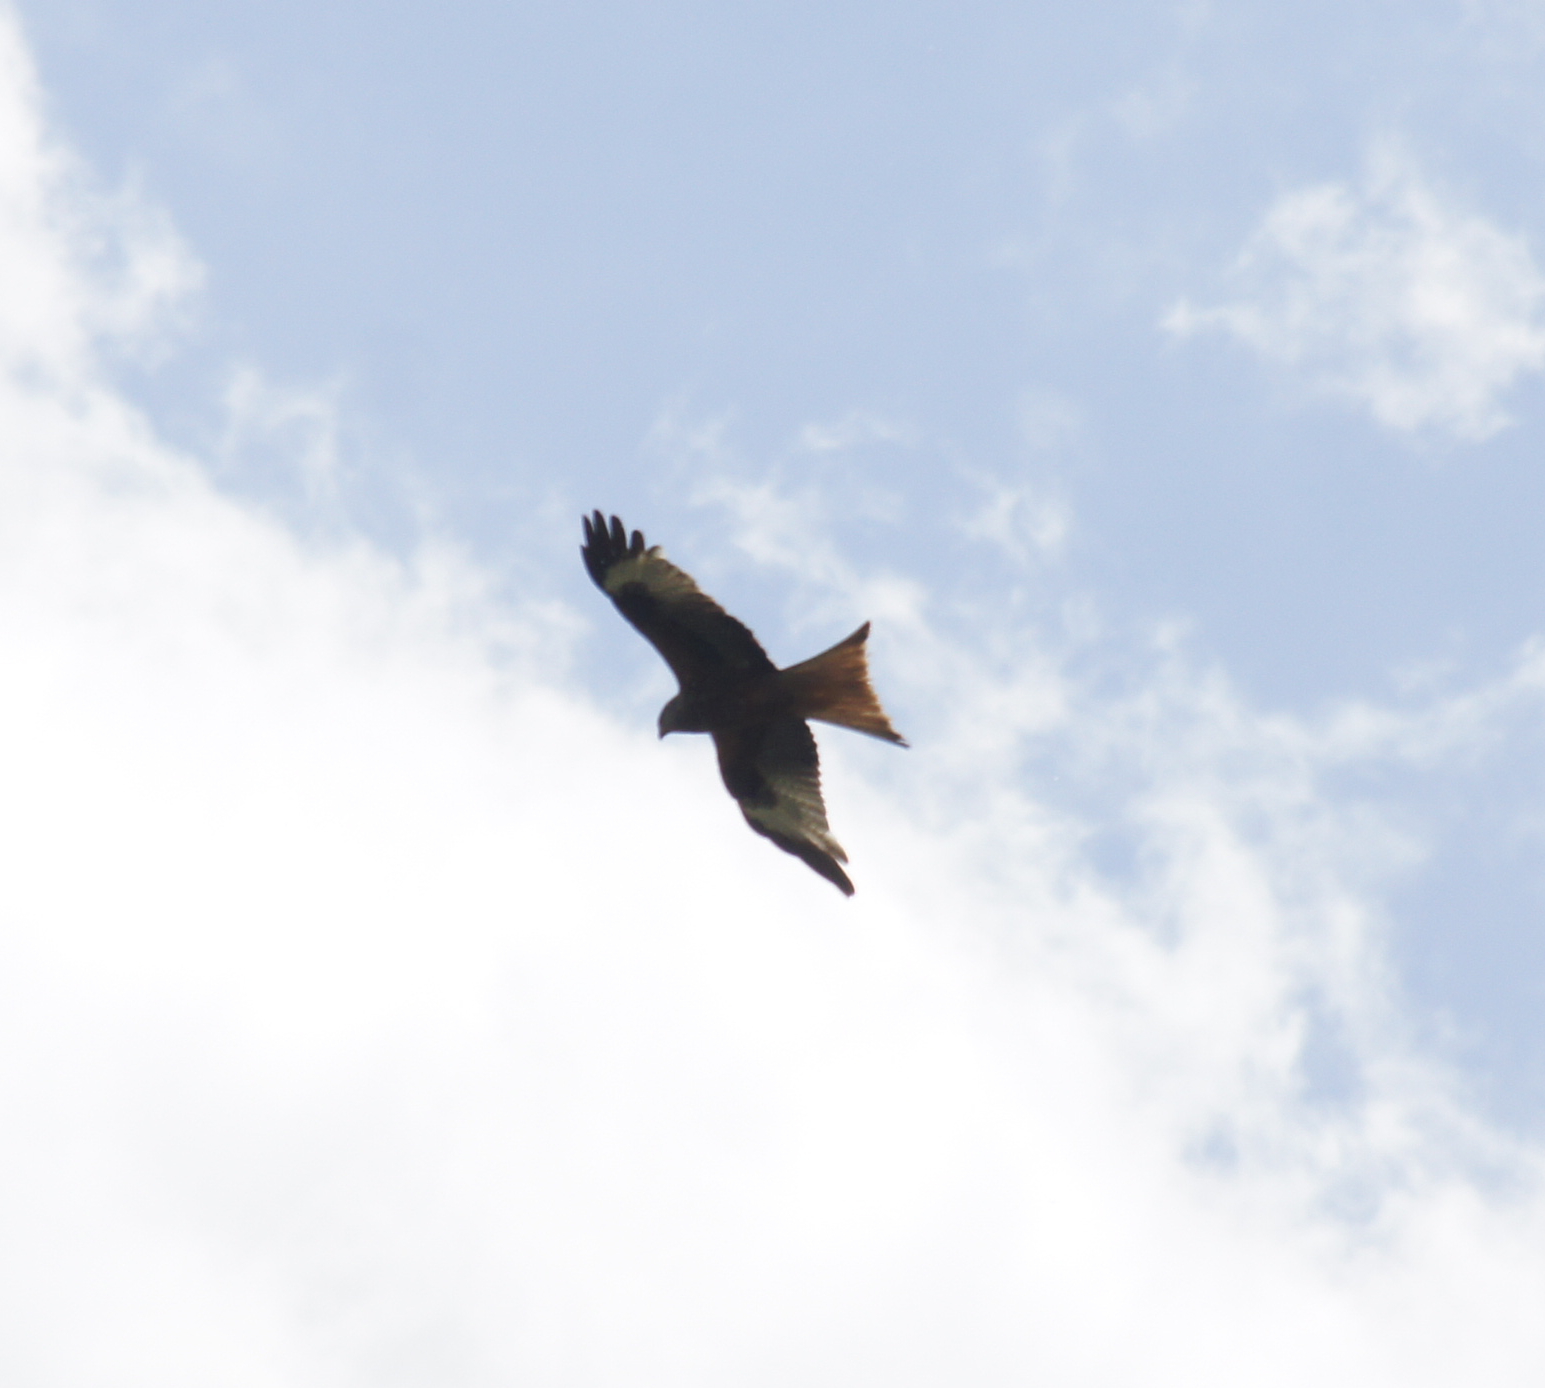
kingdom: Animalia
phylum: Chordata
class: Aves
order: Accipitriformes
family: Accipitridae
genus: Milvus
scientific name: Milvus milvus
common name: Red kite
